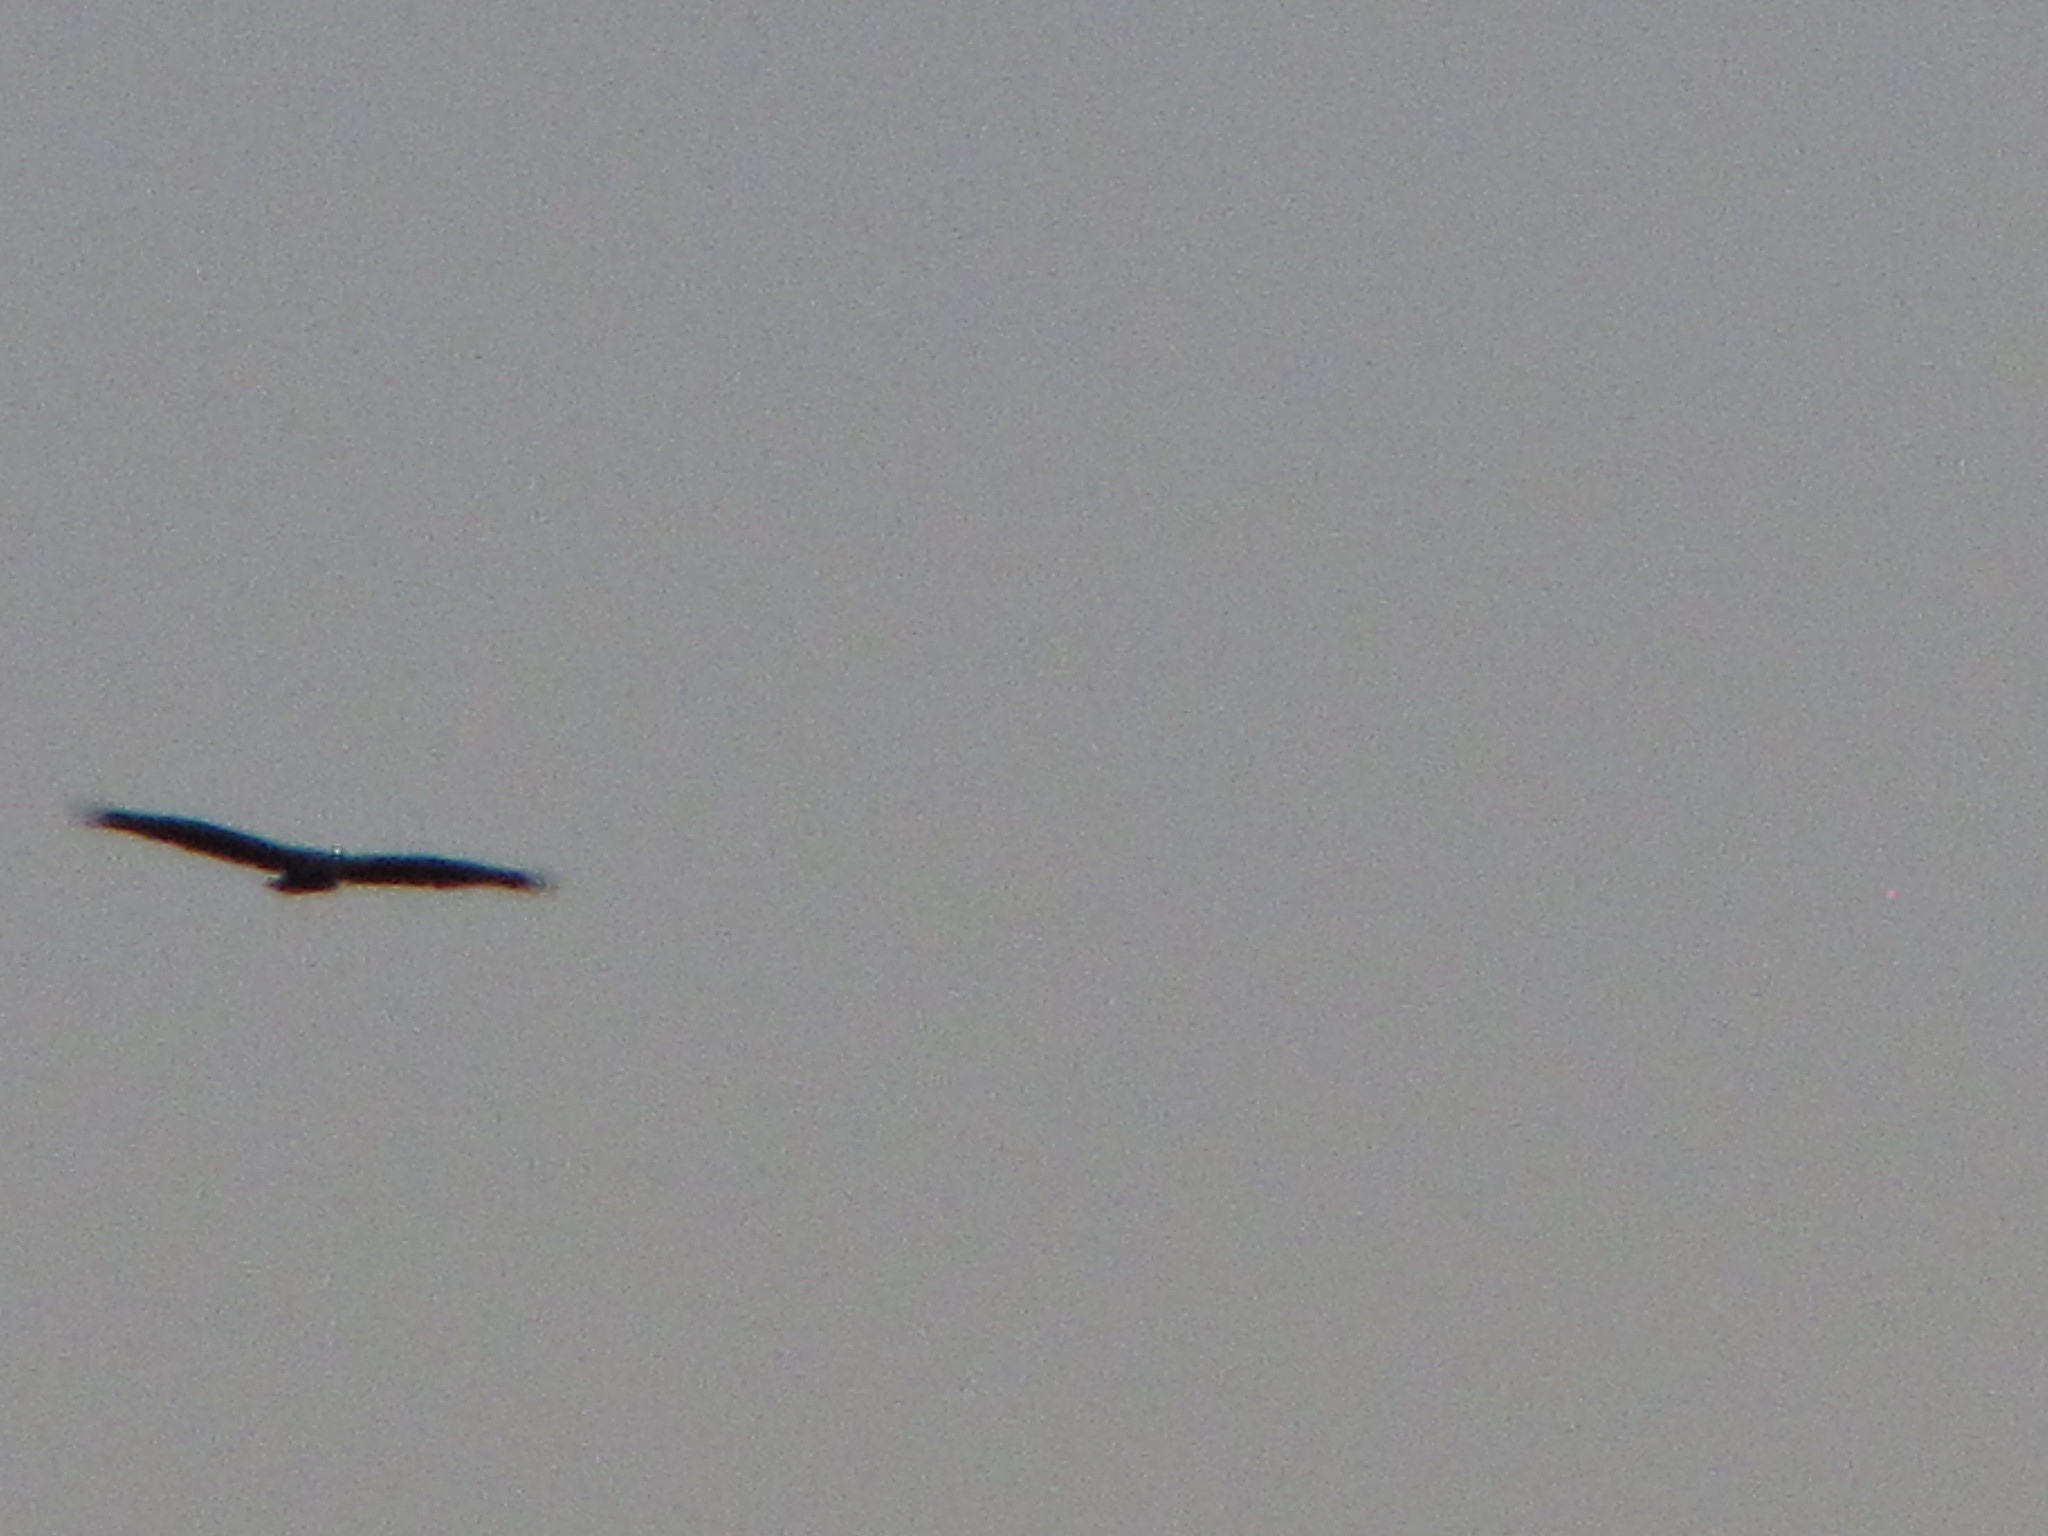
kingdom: Animalia
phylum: Chordata
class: Aves
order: Accipitriformes
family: Accipitridae
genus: Haliaeetus
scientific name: Haliaeetus leucocephalus
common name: Bald eagle
